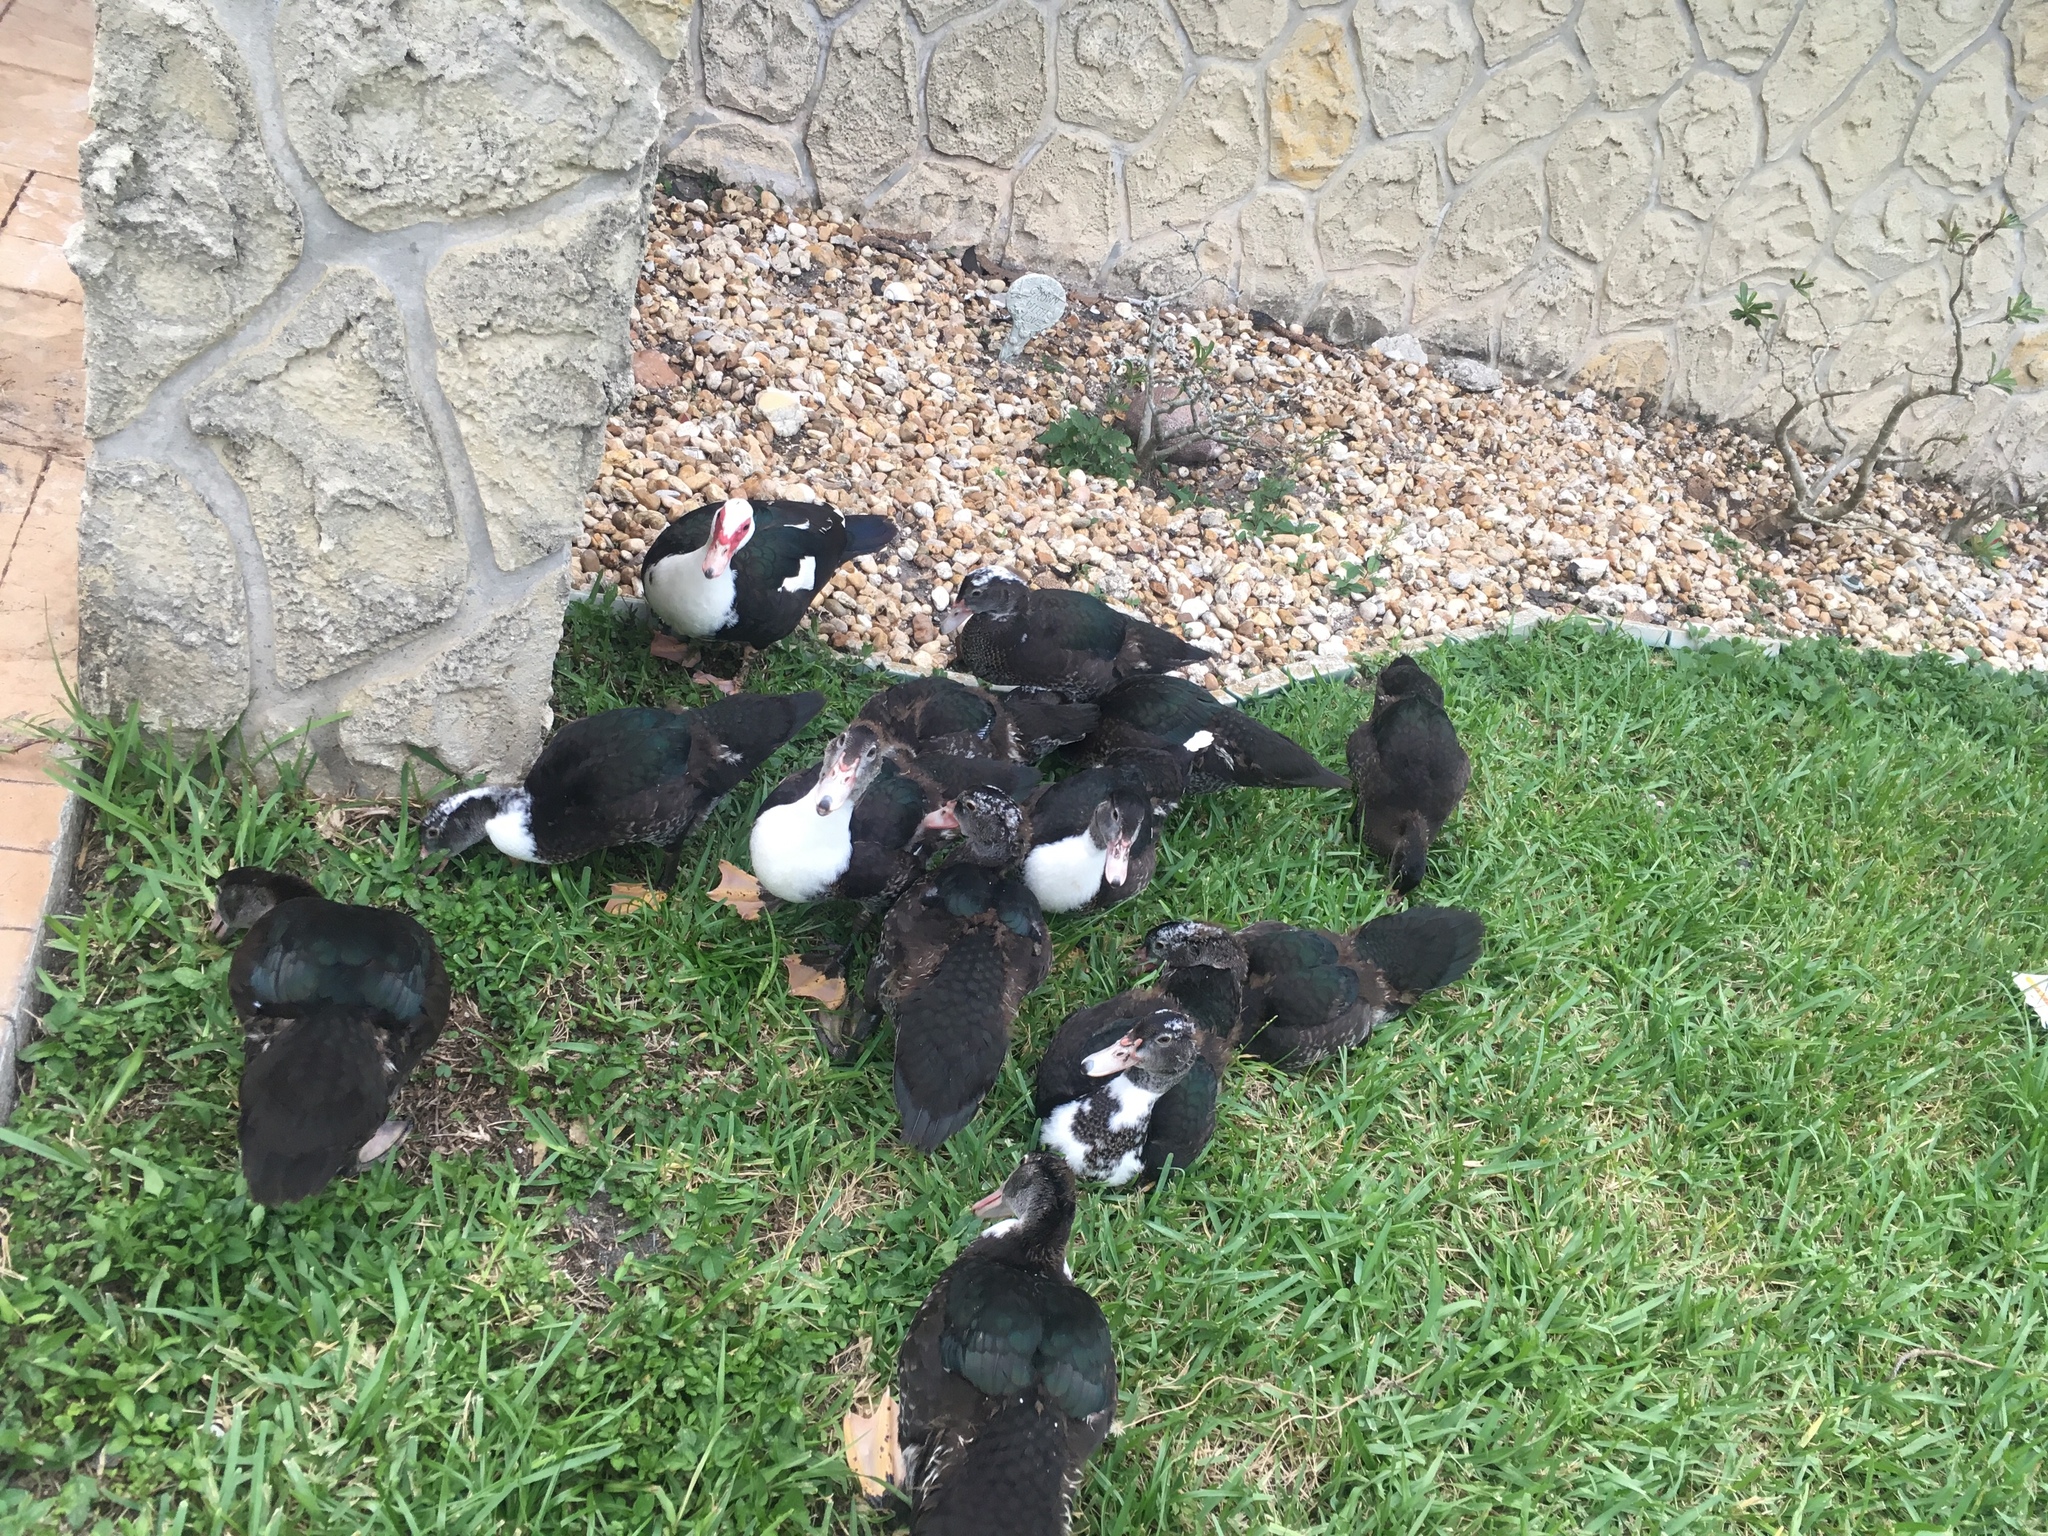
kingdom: Animalia
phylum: Chordata
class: Aves
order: Anseriformes
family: Anatidae
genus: Cairina
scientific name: Cairina moschata
